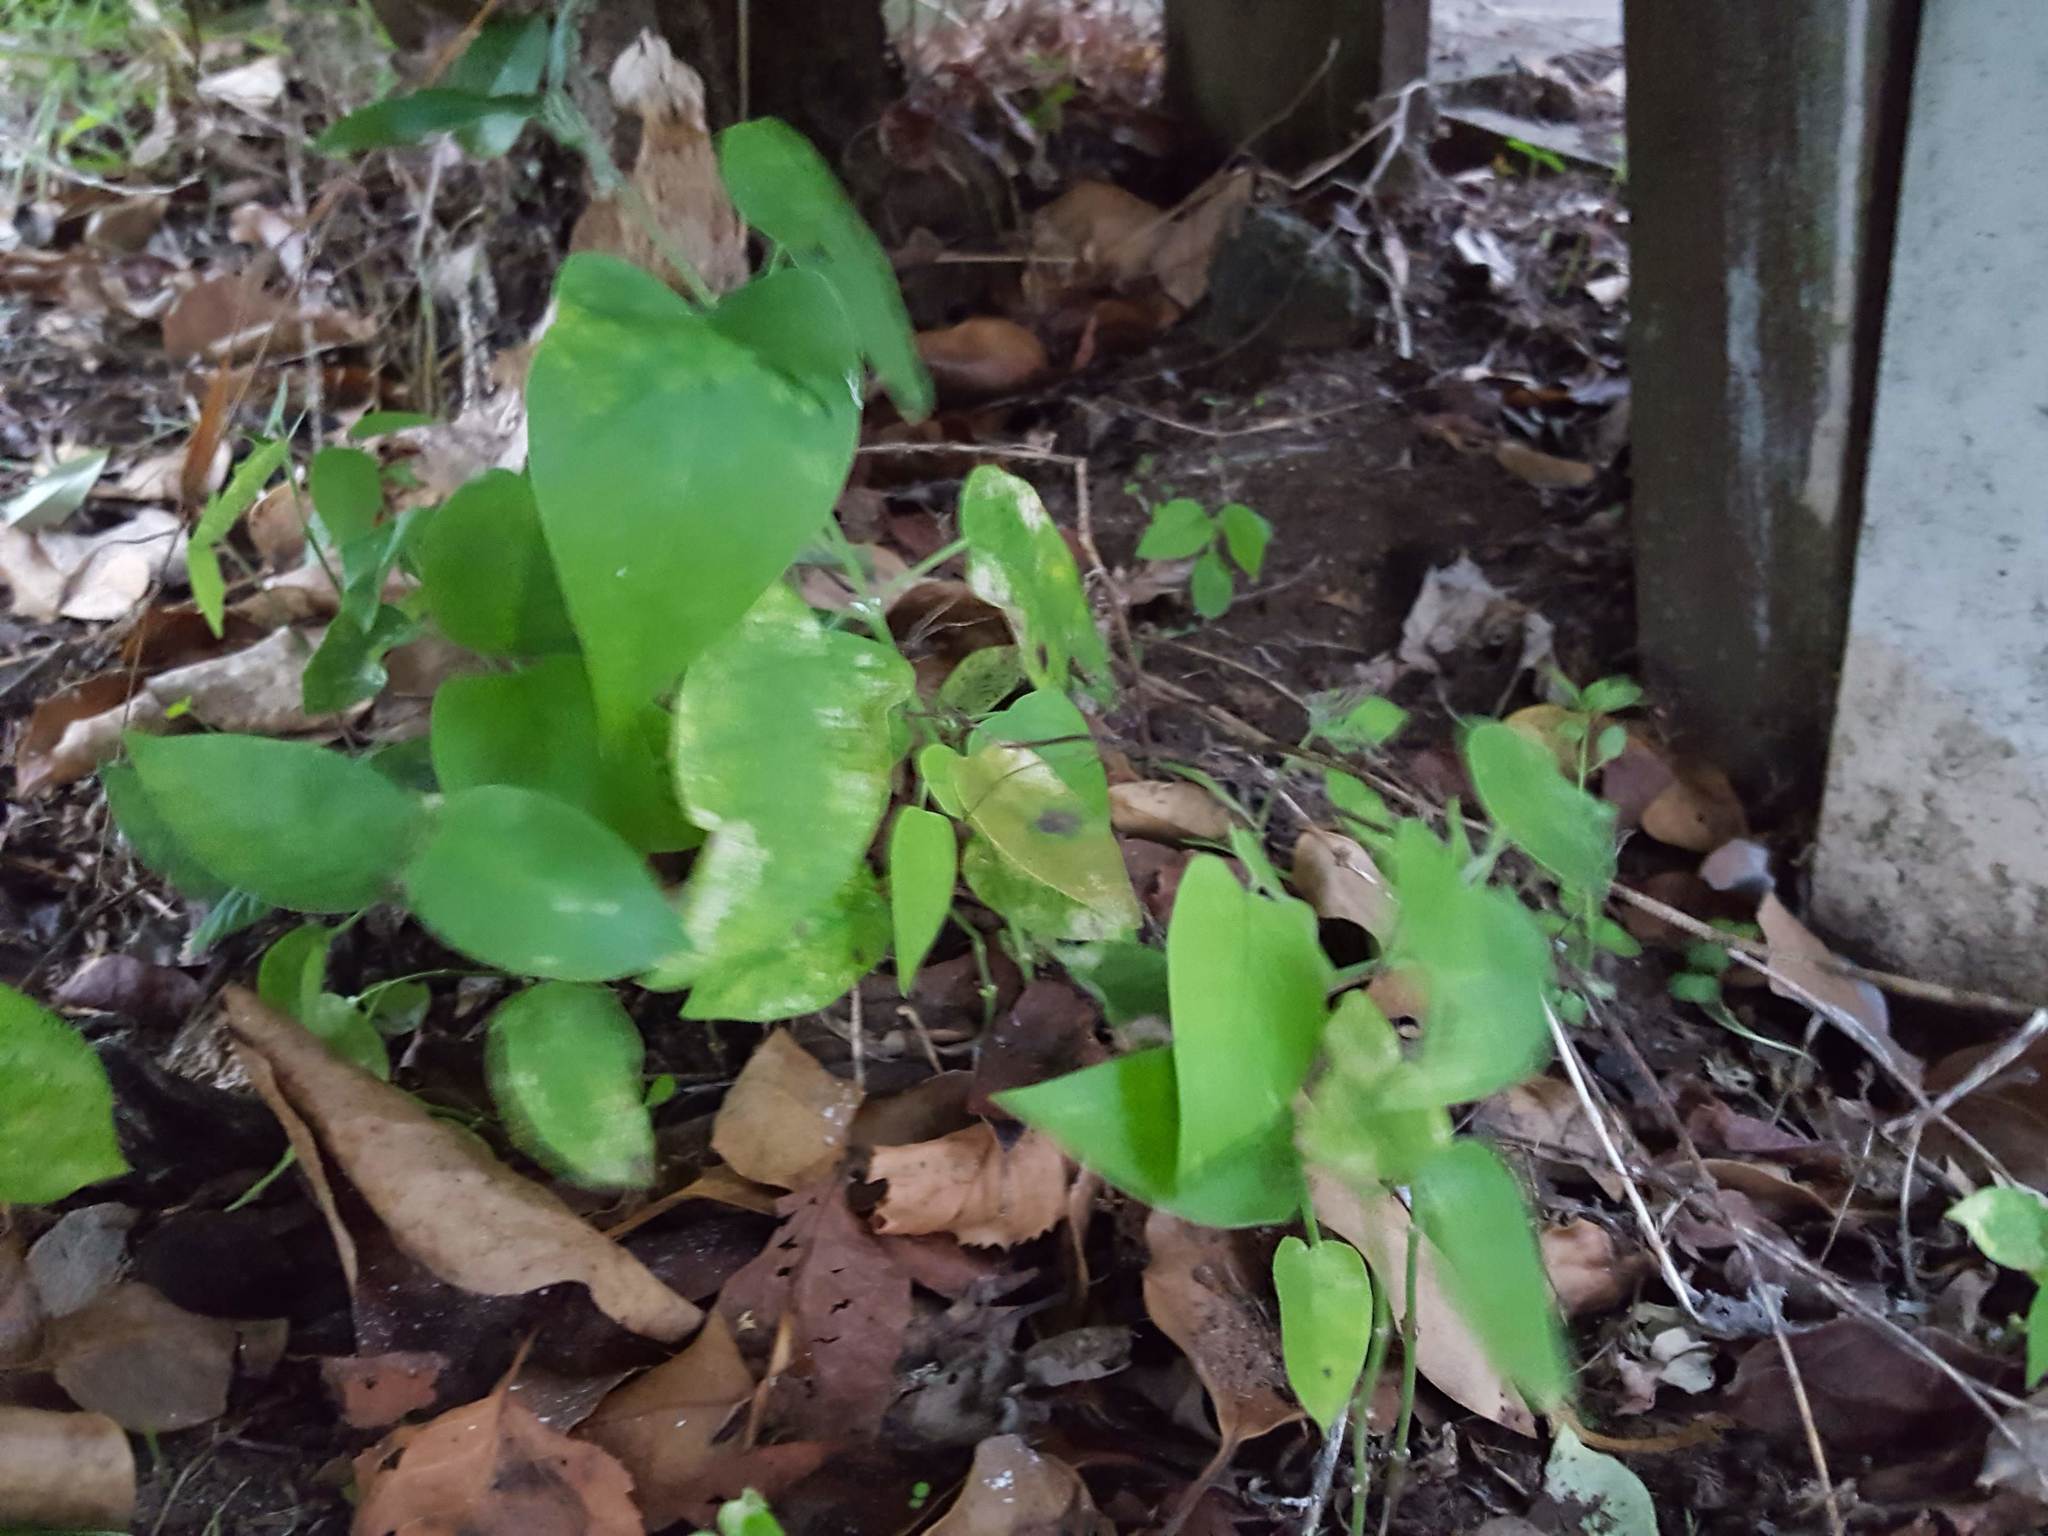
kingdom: Plantae
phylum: Tracheophyta
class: Magnoliopsida
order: Gentianales
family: Apocynaceae
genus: Araujia
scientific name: Araujia sericifera
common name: White bladderflower
